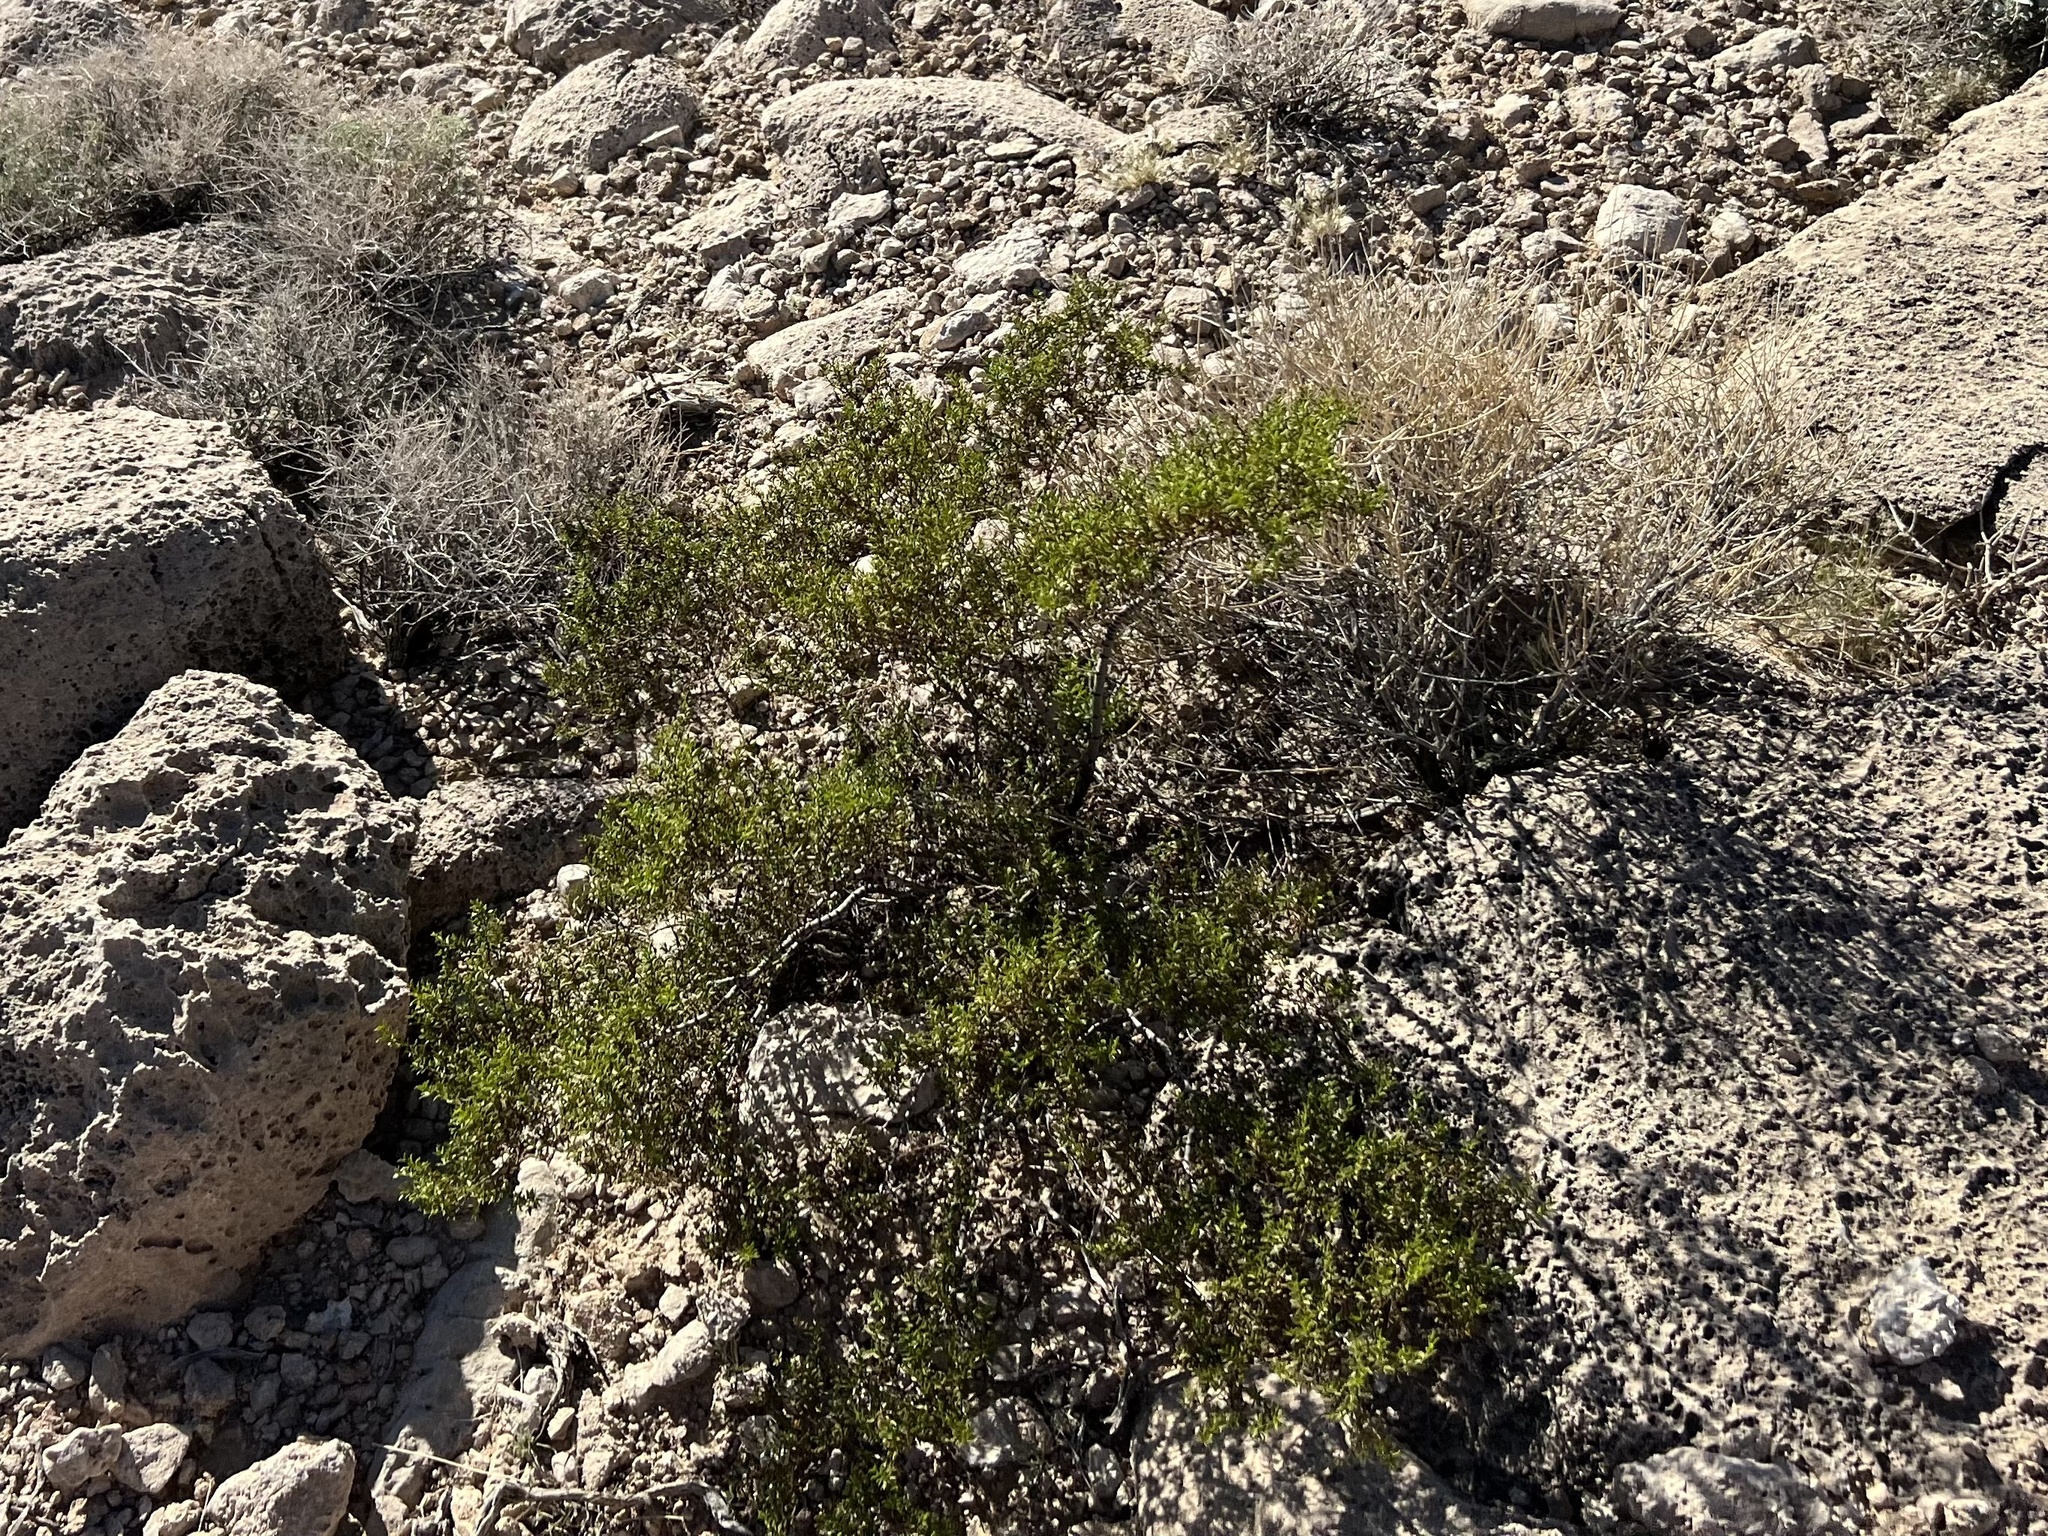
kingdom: Plantae
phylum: Tracheophyta
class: Magnoliopsida
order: Zygophyllales
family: Zygophyllaceae
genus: Larrea
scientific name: Larrea tridentata
